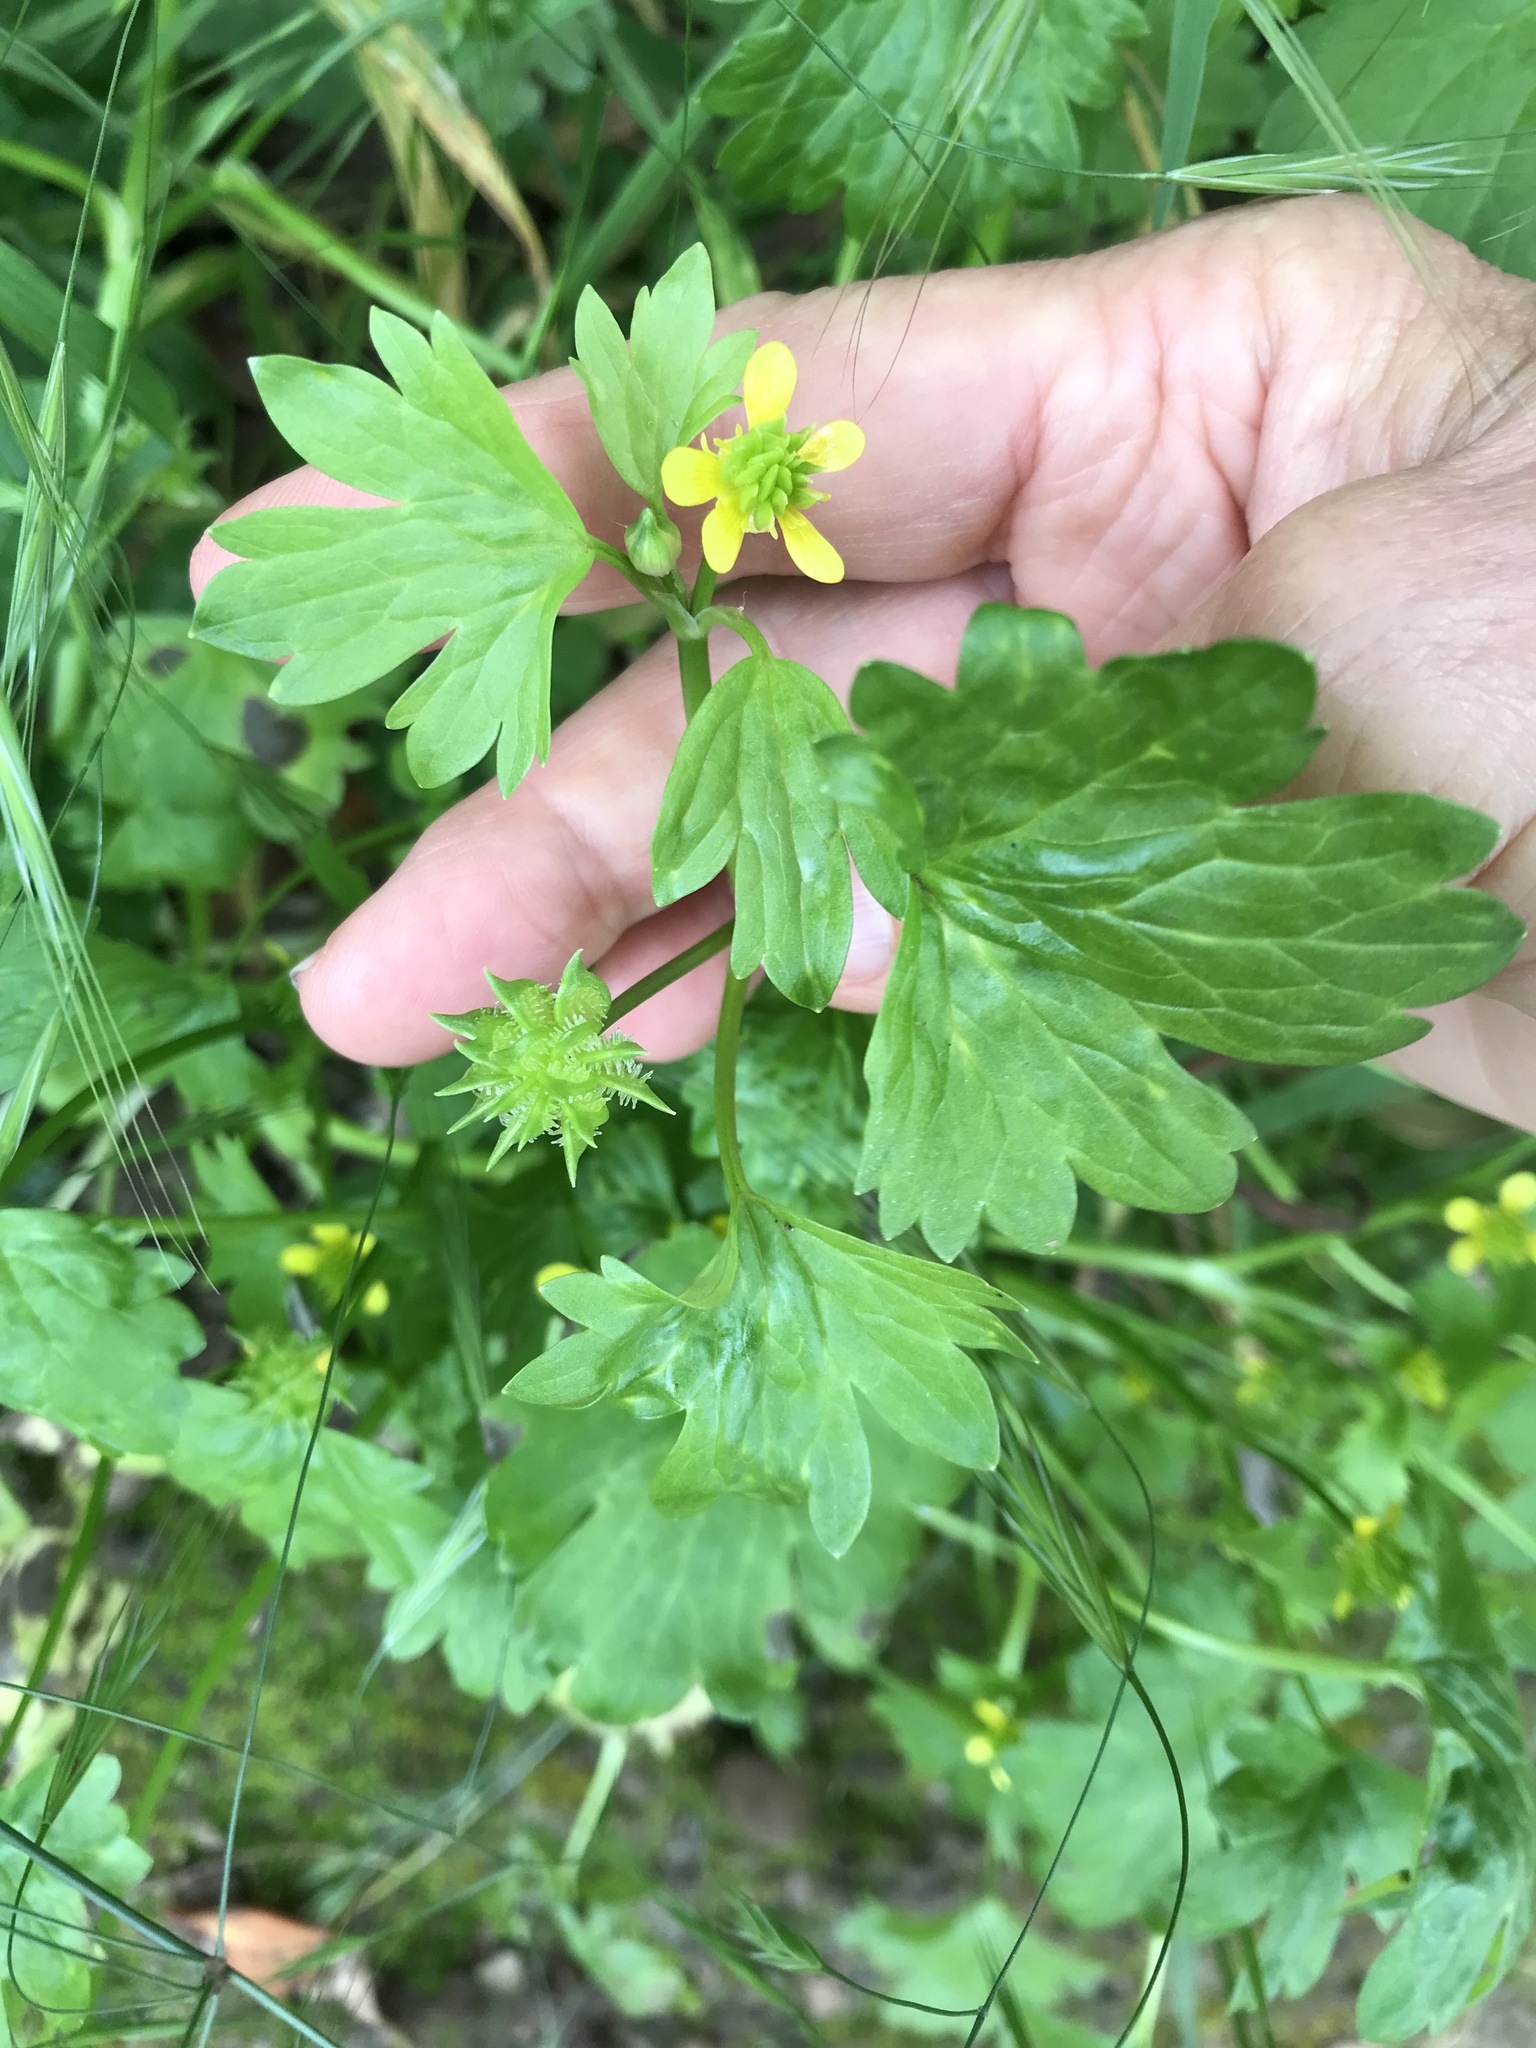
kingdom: Plantae
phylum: Tracheophyta
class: Magnoliopsida
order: Ranunculales
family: Ranunculaceae
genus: Ranunculus
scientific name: Ranunculus muricatus
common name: Rough-fruited buttercup
